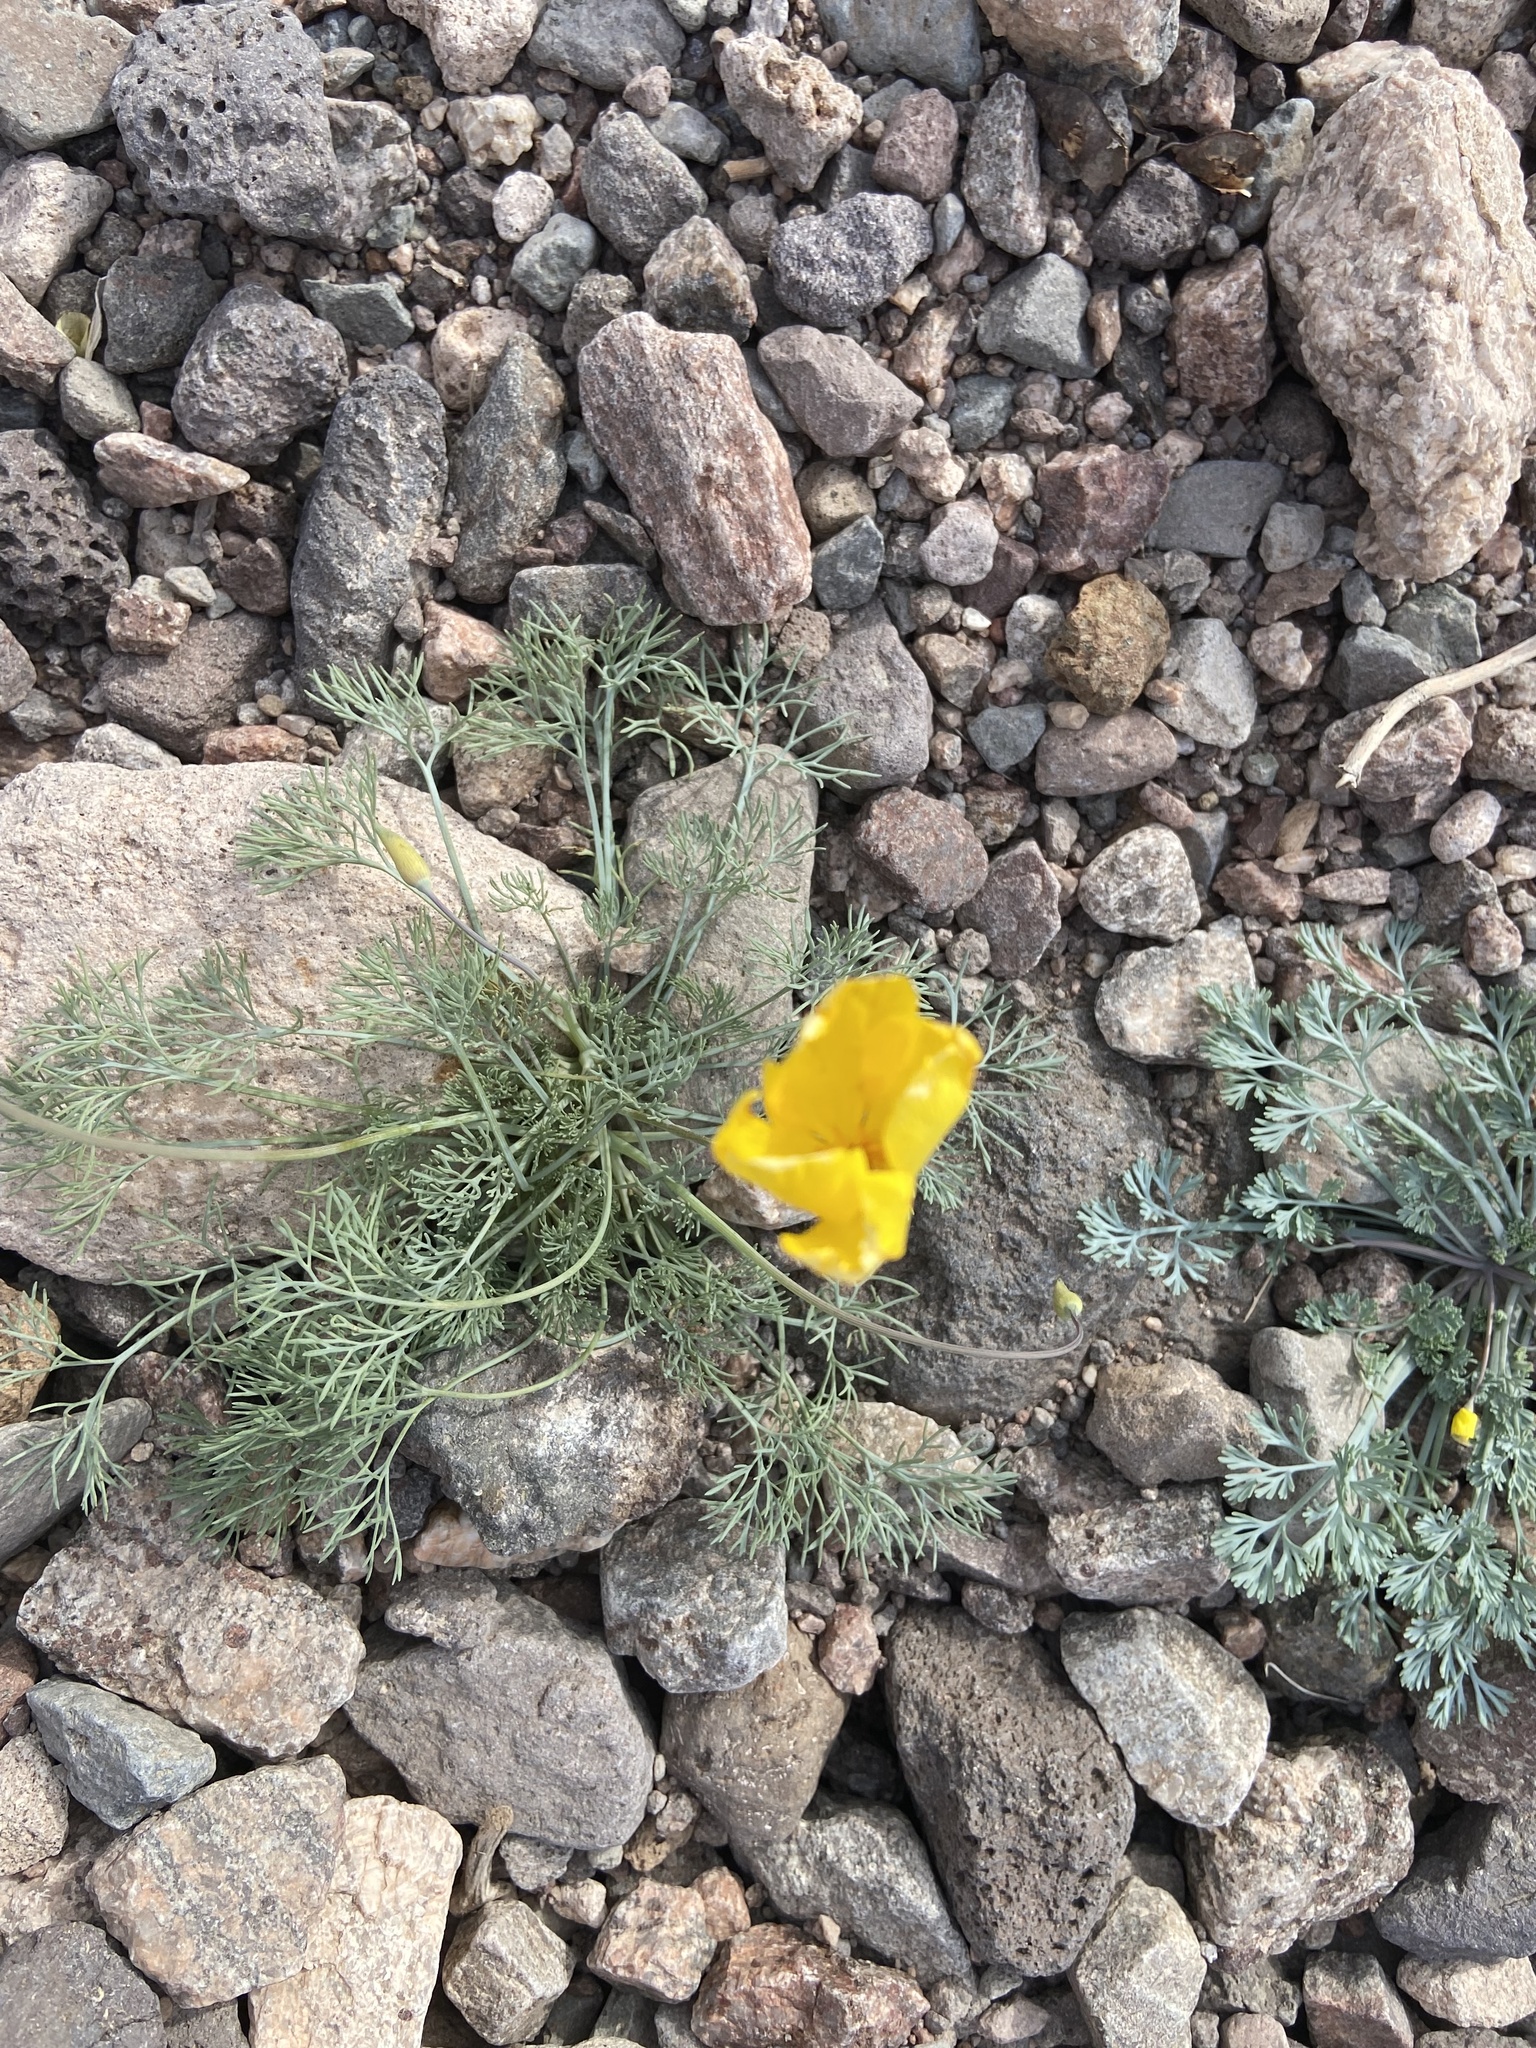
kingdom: Plantae
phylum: Tracheophyta
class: Magnoliopsida
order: Ranunculales
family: Papaveraceae
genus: Eschscholzia
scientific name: Eschscholzia glyptosperma
